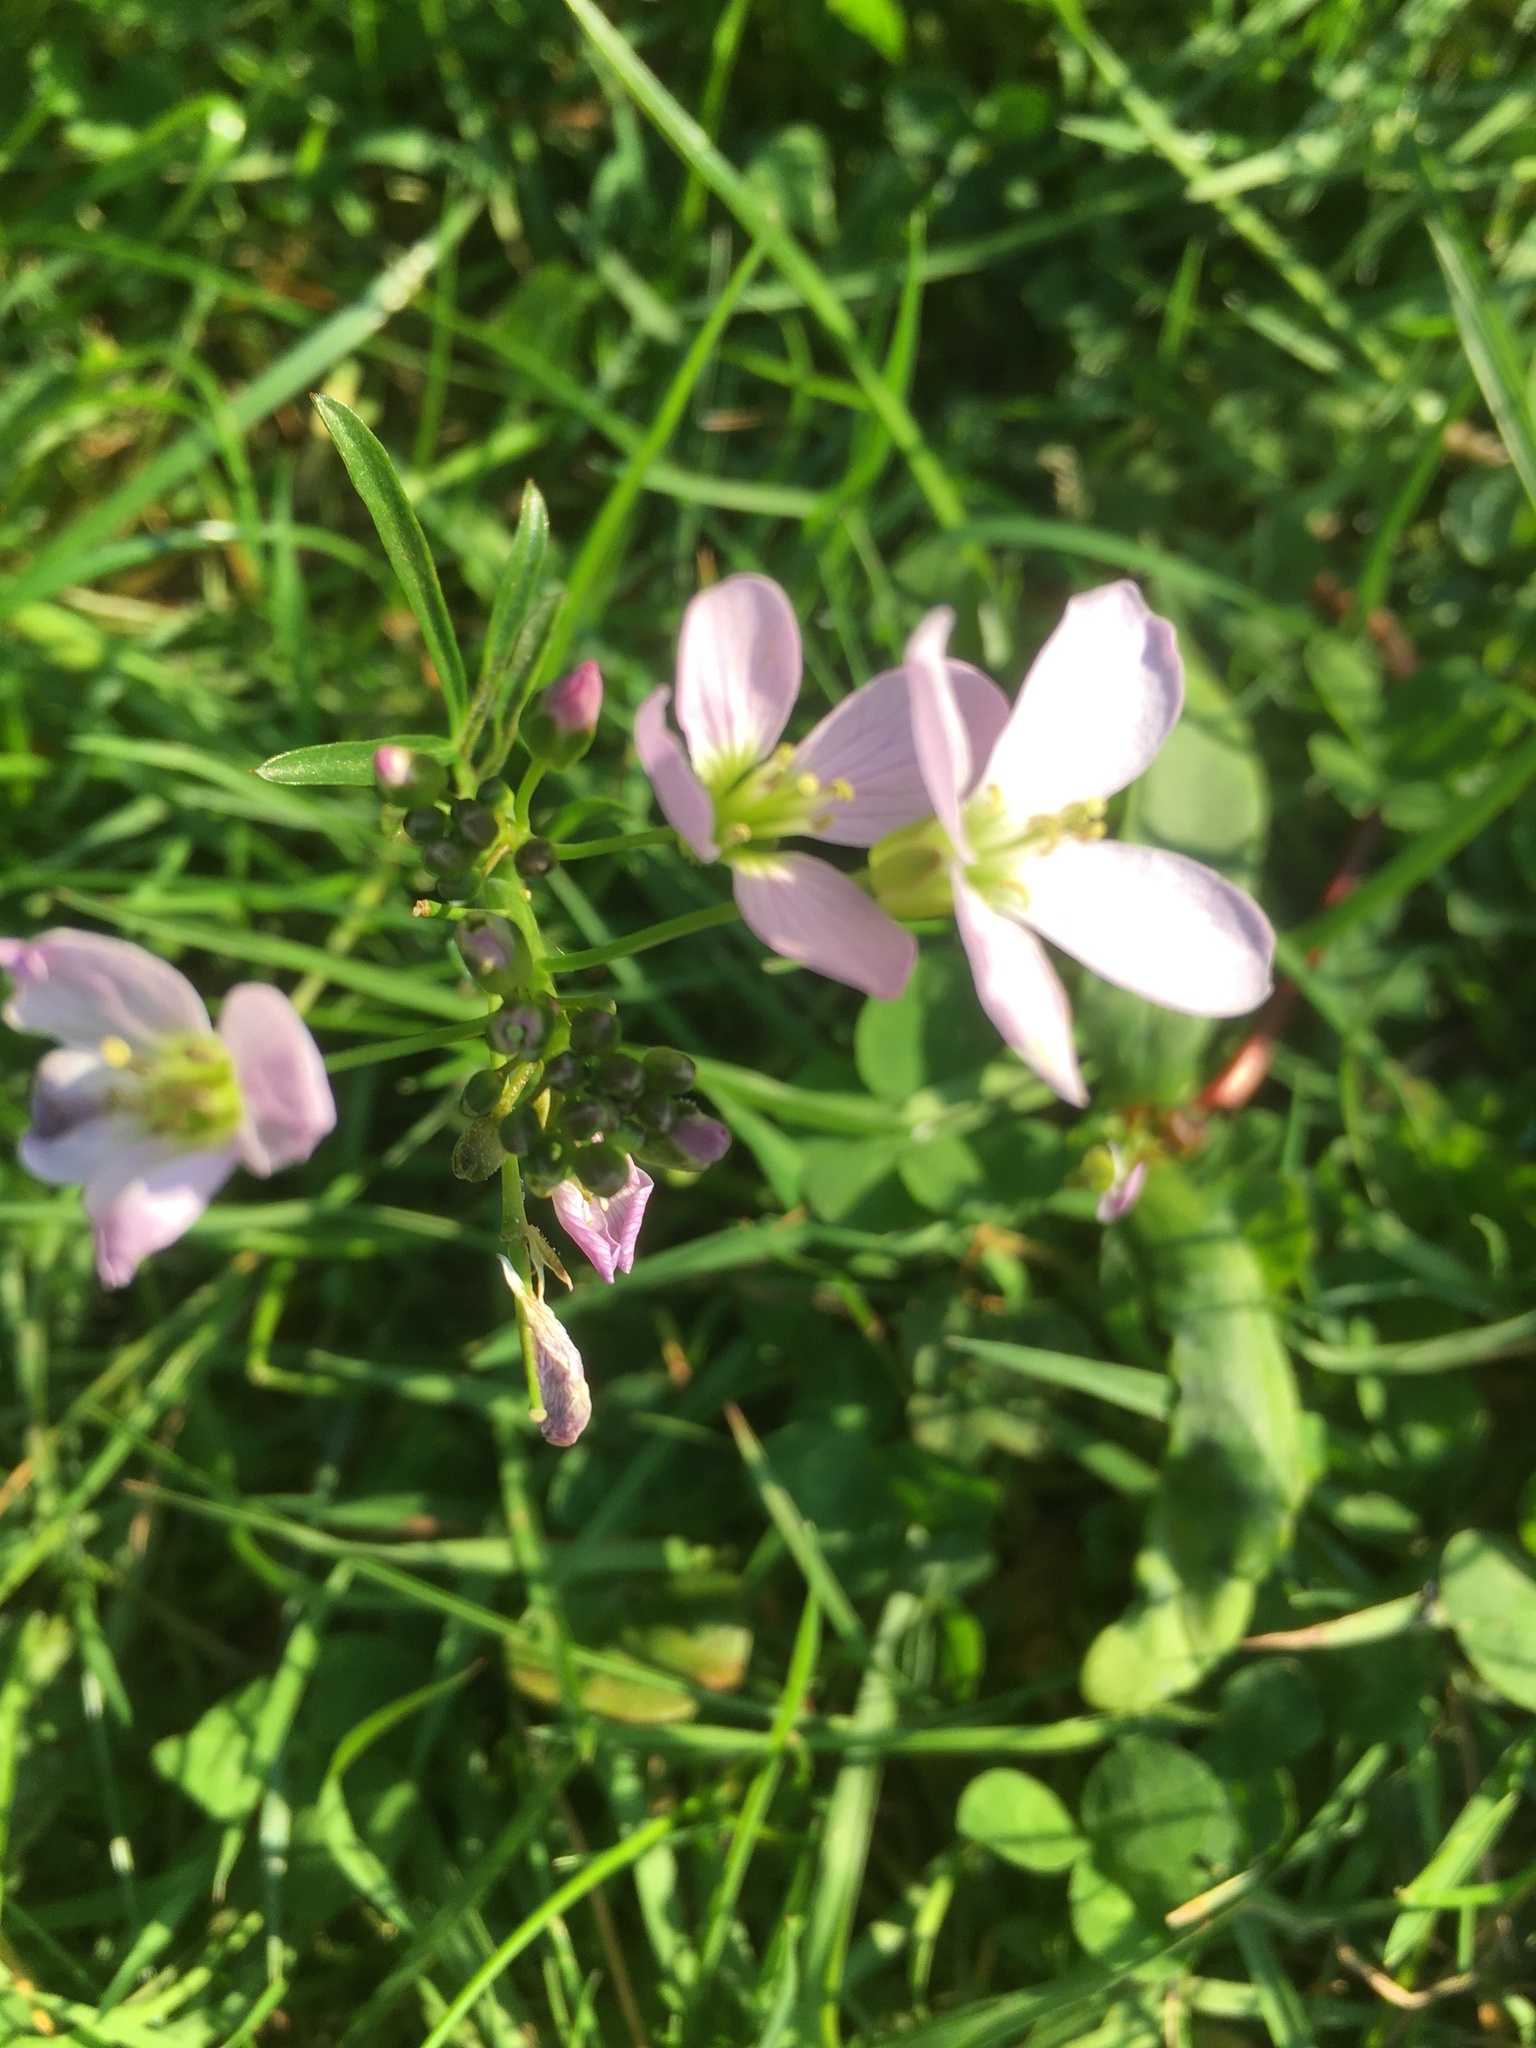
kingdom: Plantae
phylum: Tracheophyta
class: Magnoliopsida
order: Brassicales
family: Brassicaceae
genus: Cardamine
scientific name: Cardamine pratensis
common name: Cuckoo flower
